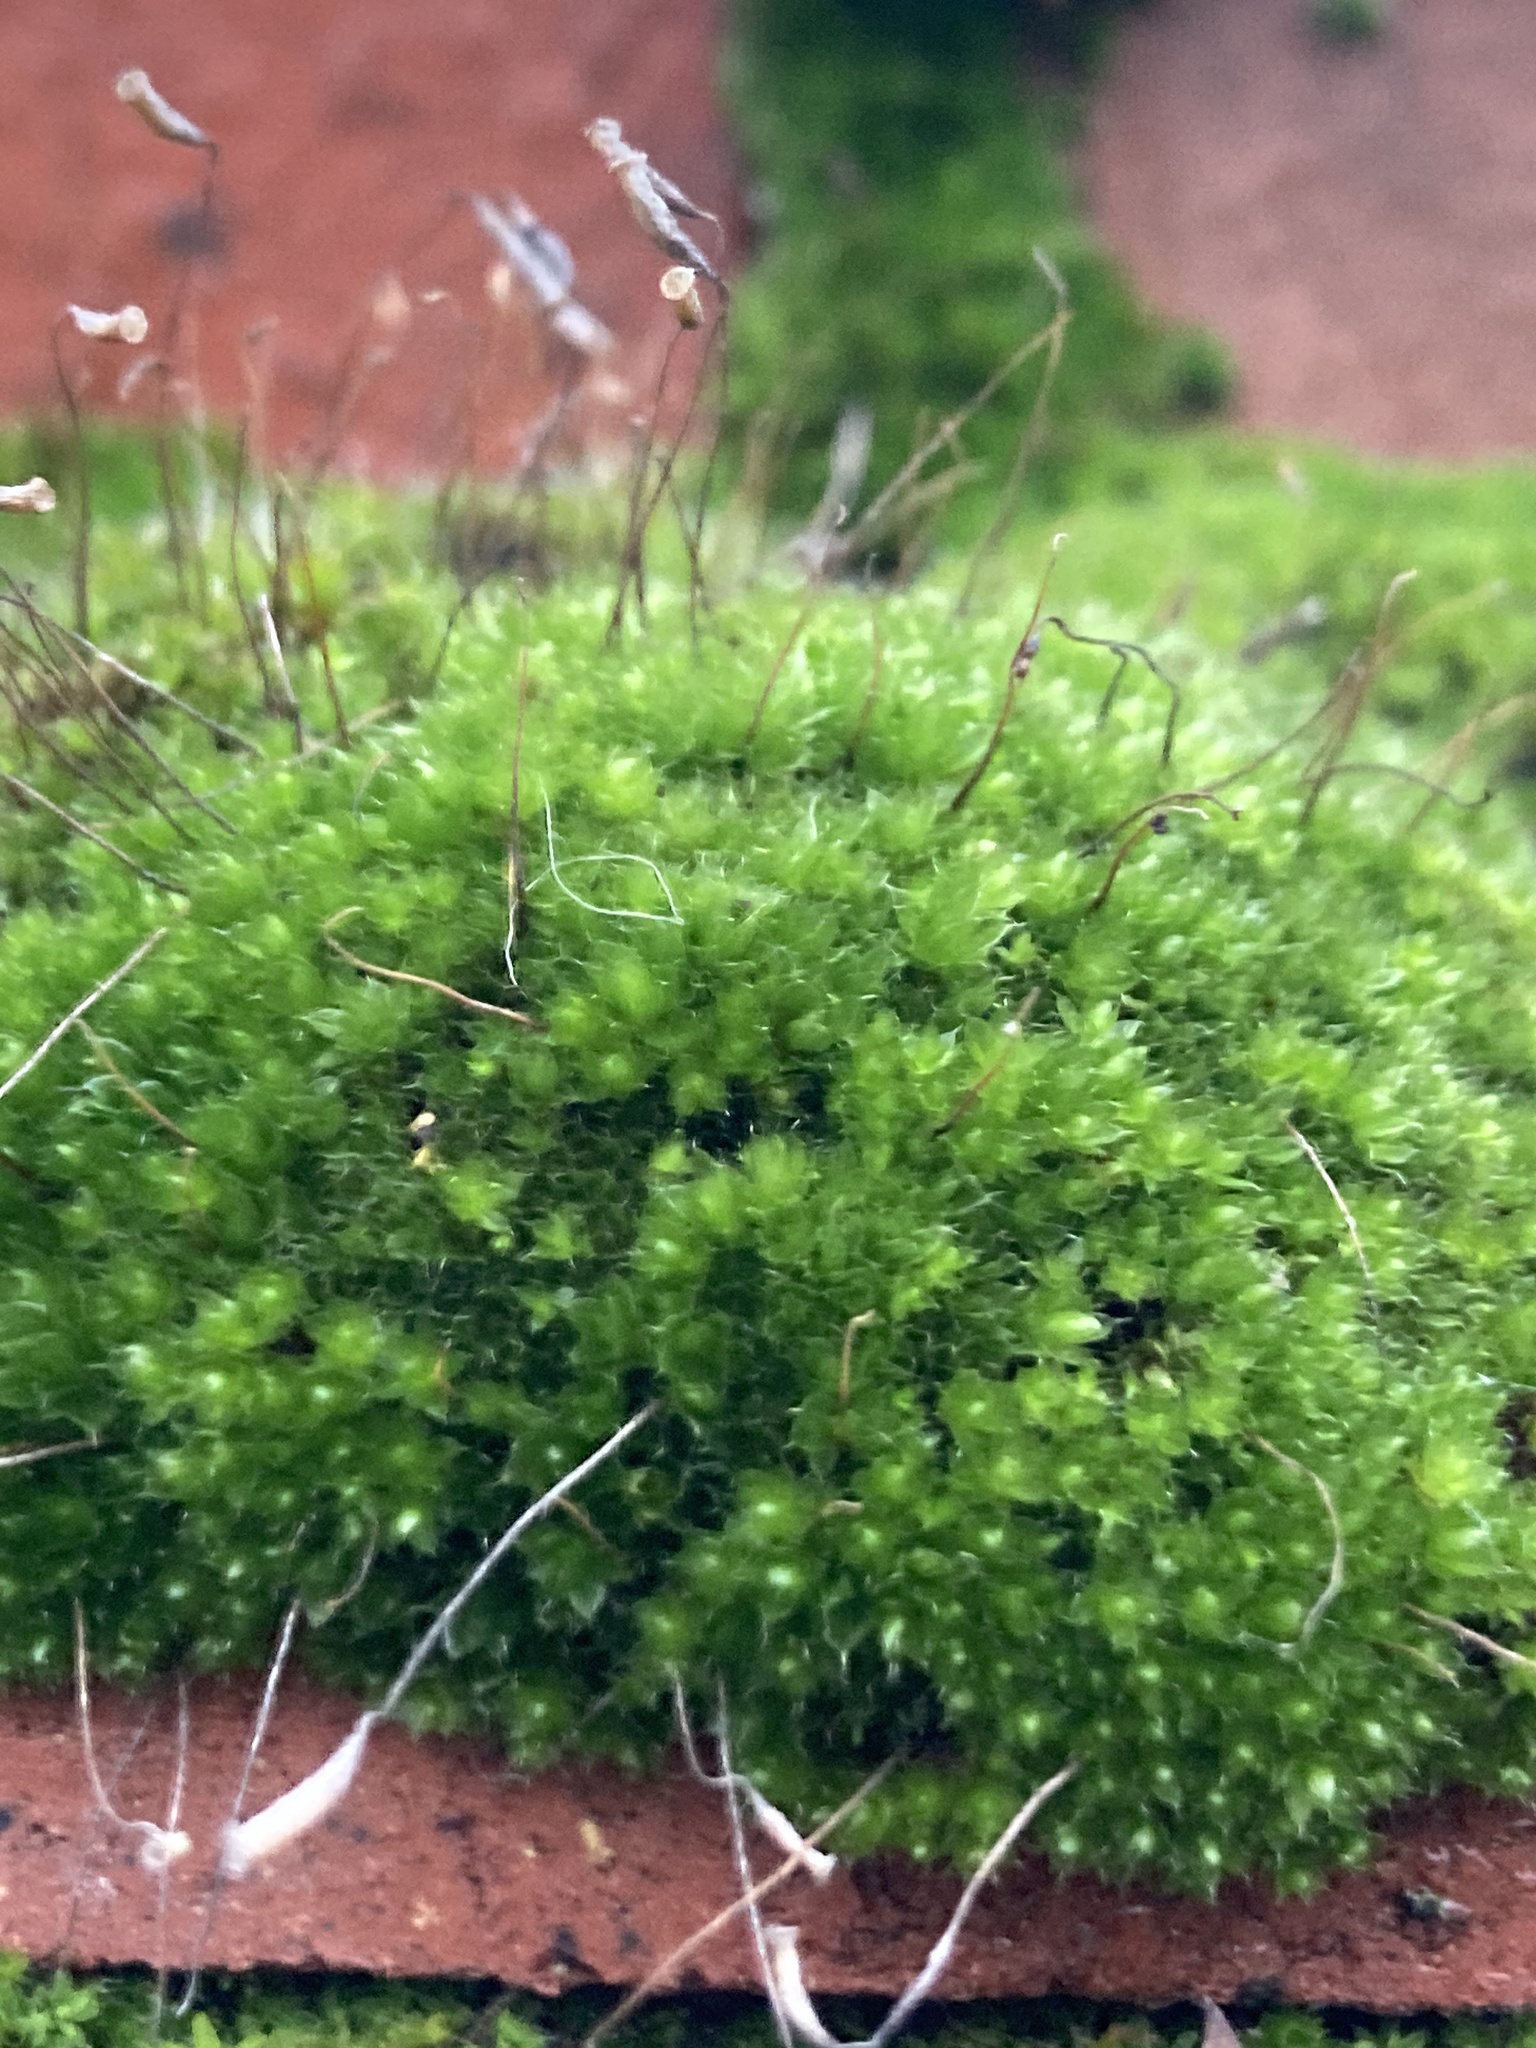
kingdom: Plantae
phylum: Bryophyta
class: Bryopsida
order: Bryales
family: Bryaceae
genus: Rosulabryum
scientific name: Rosulabryum capillare
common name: Capillary thread-moss
